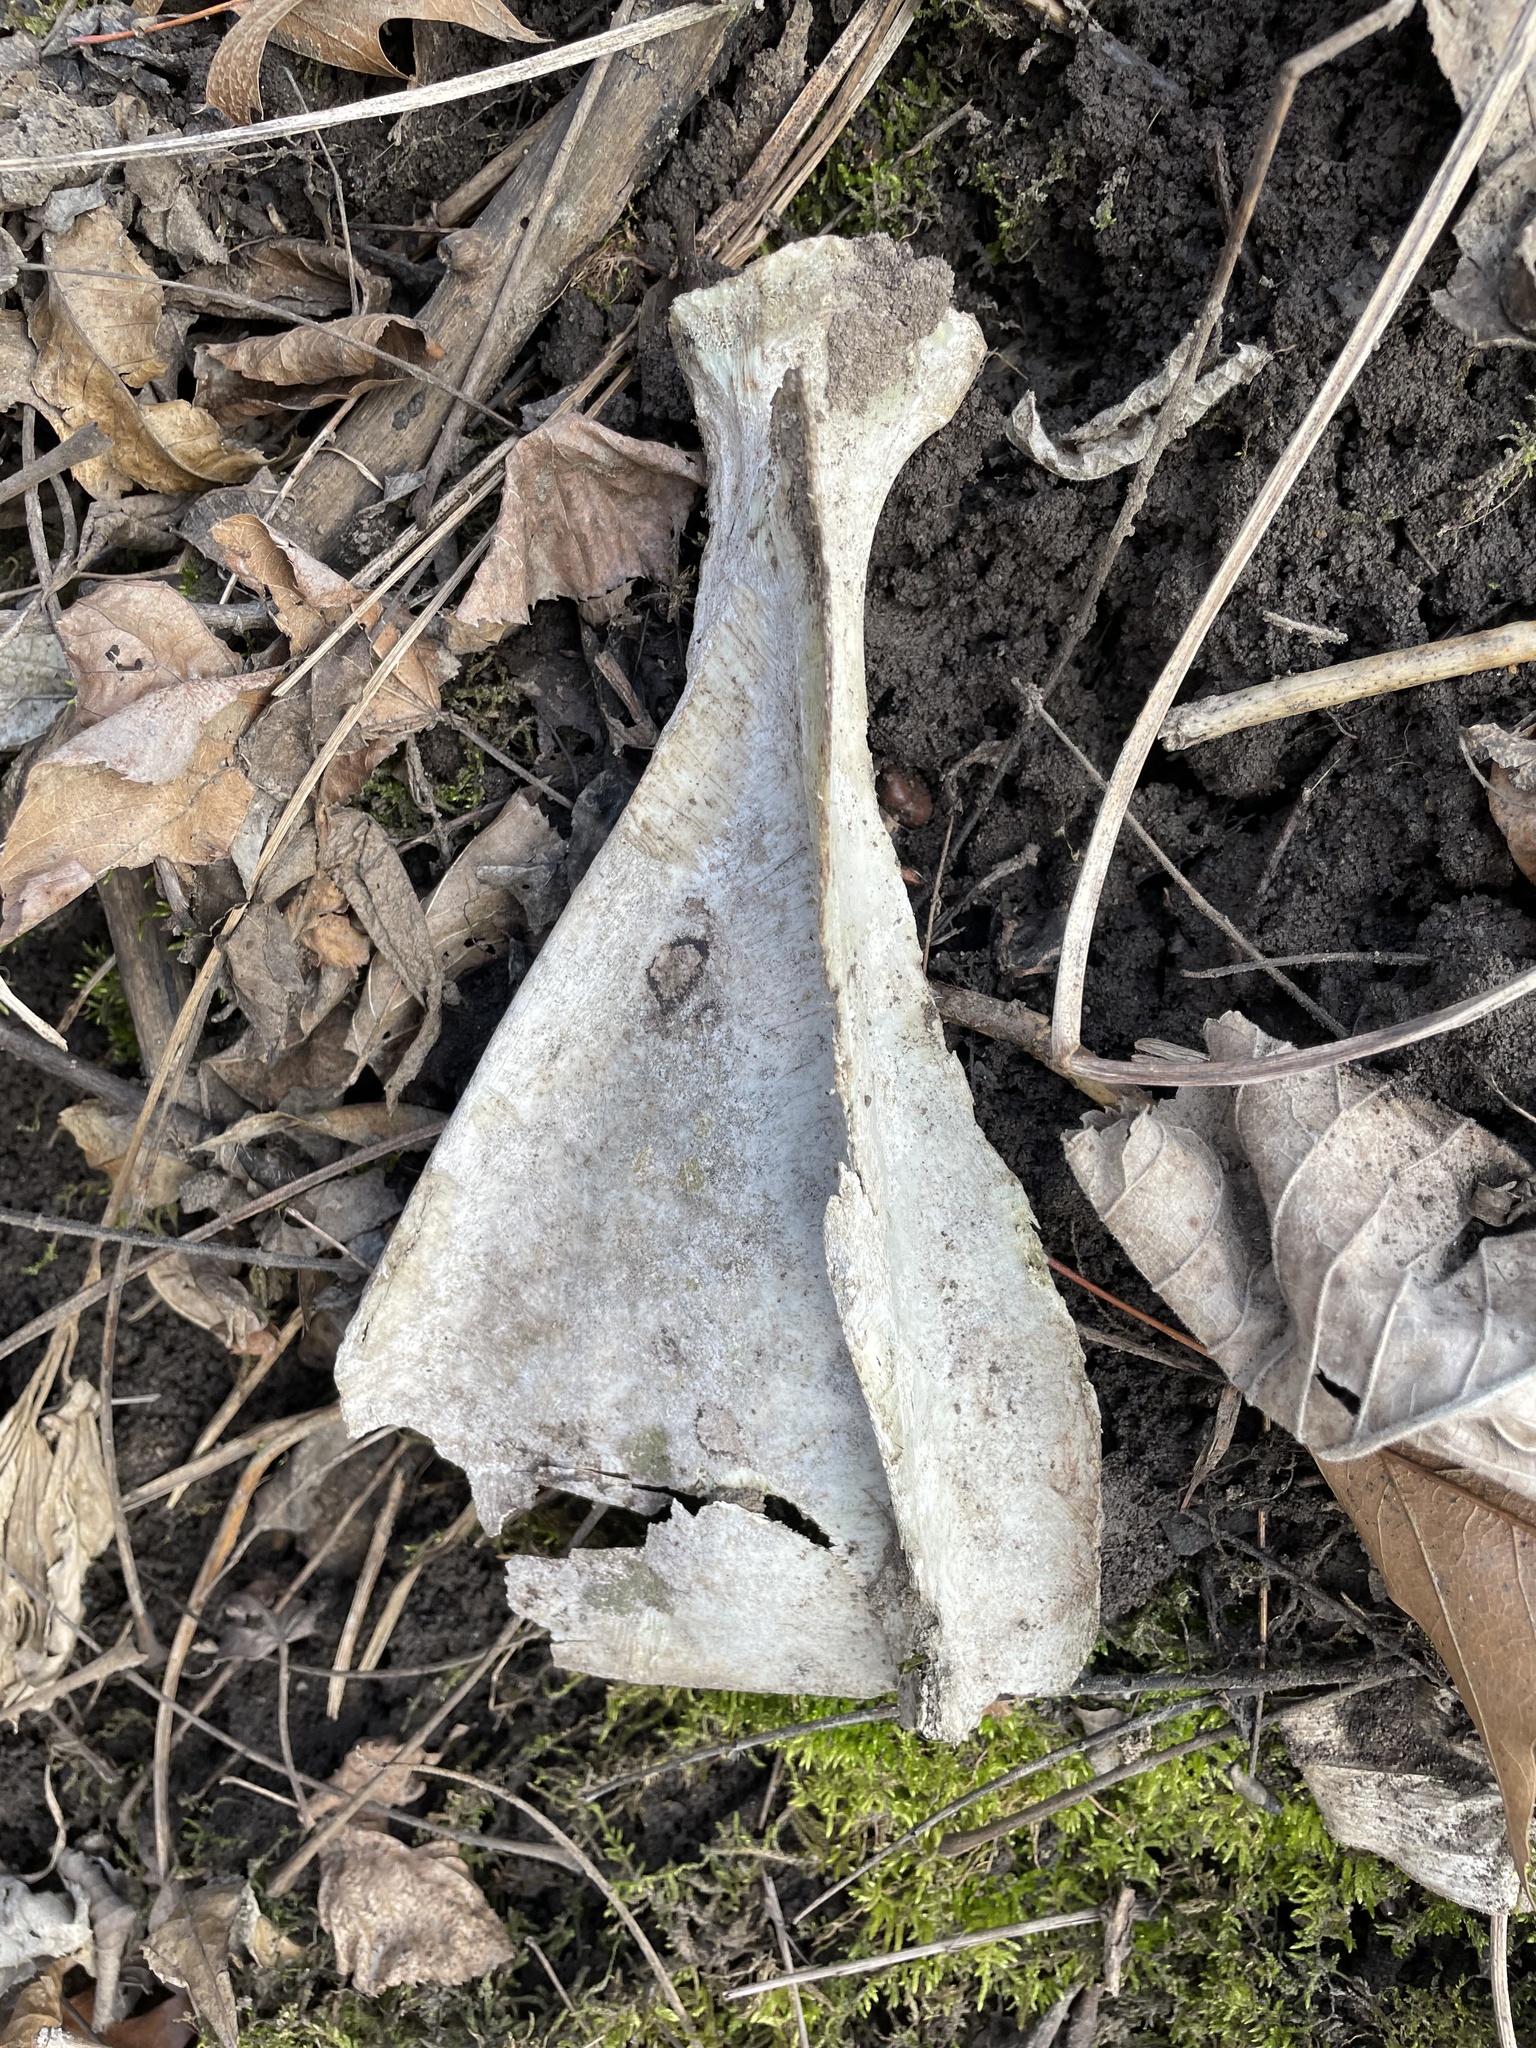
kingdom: Animalia
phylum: Chordata
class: Mammalia
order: Artiodactyla
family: Cervidae
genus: Odocoileus
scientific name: Odocoileus virginianus
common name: White-tailed deer
